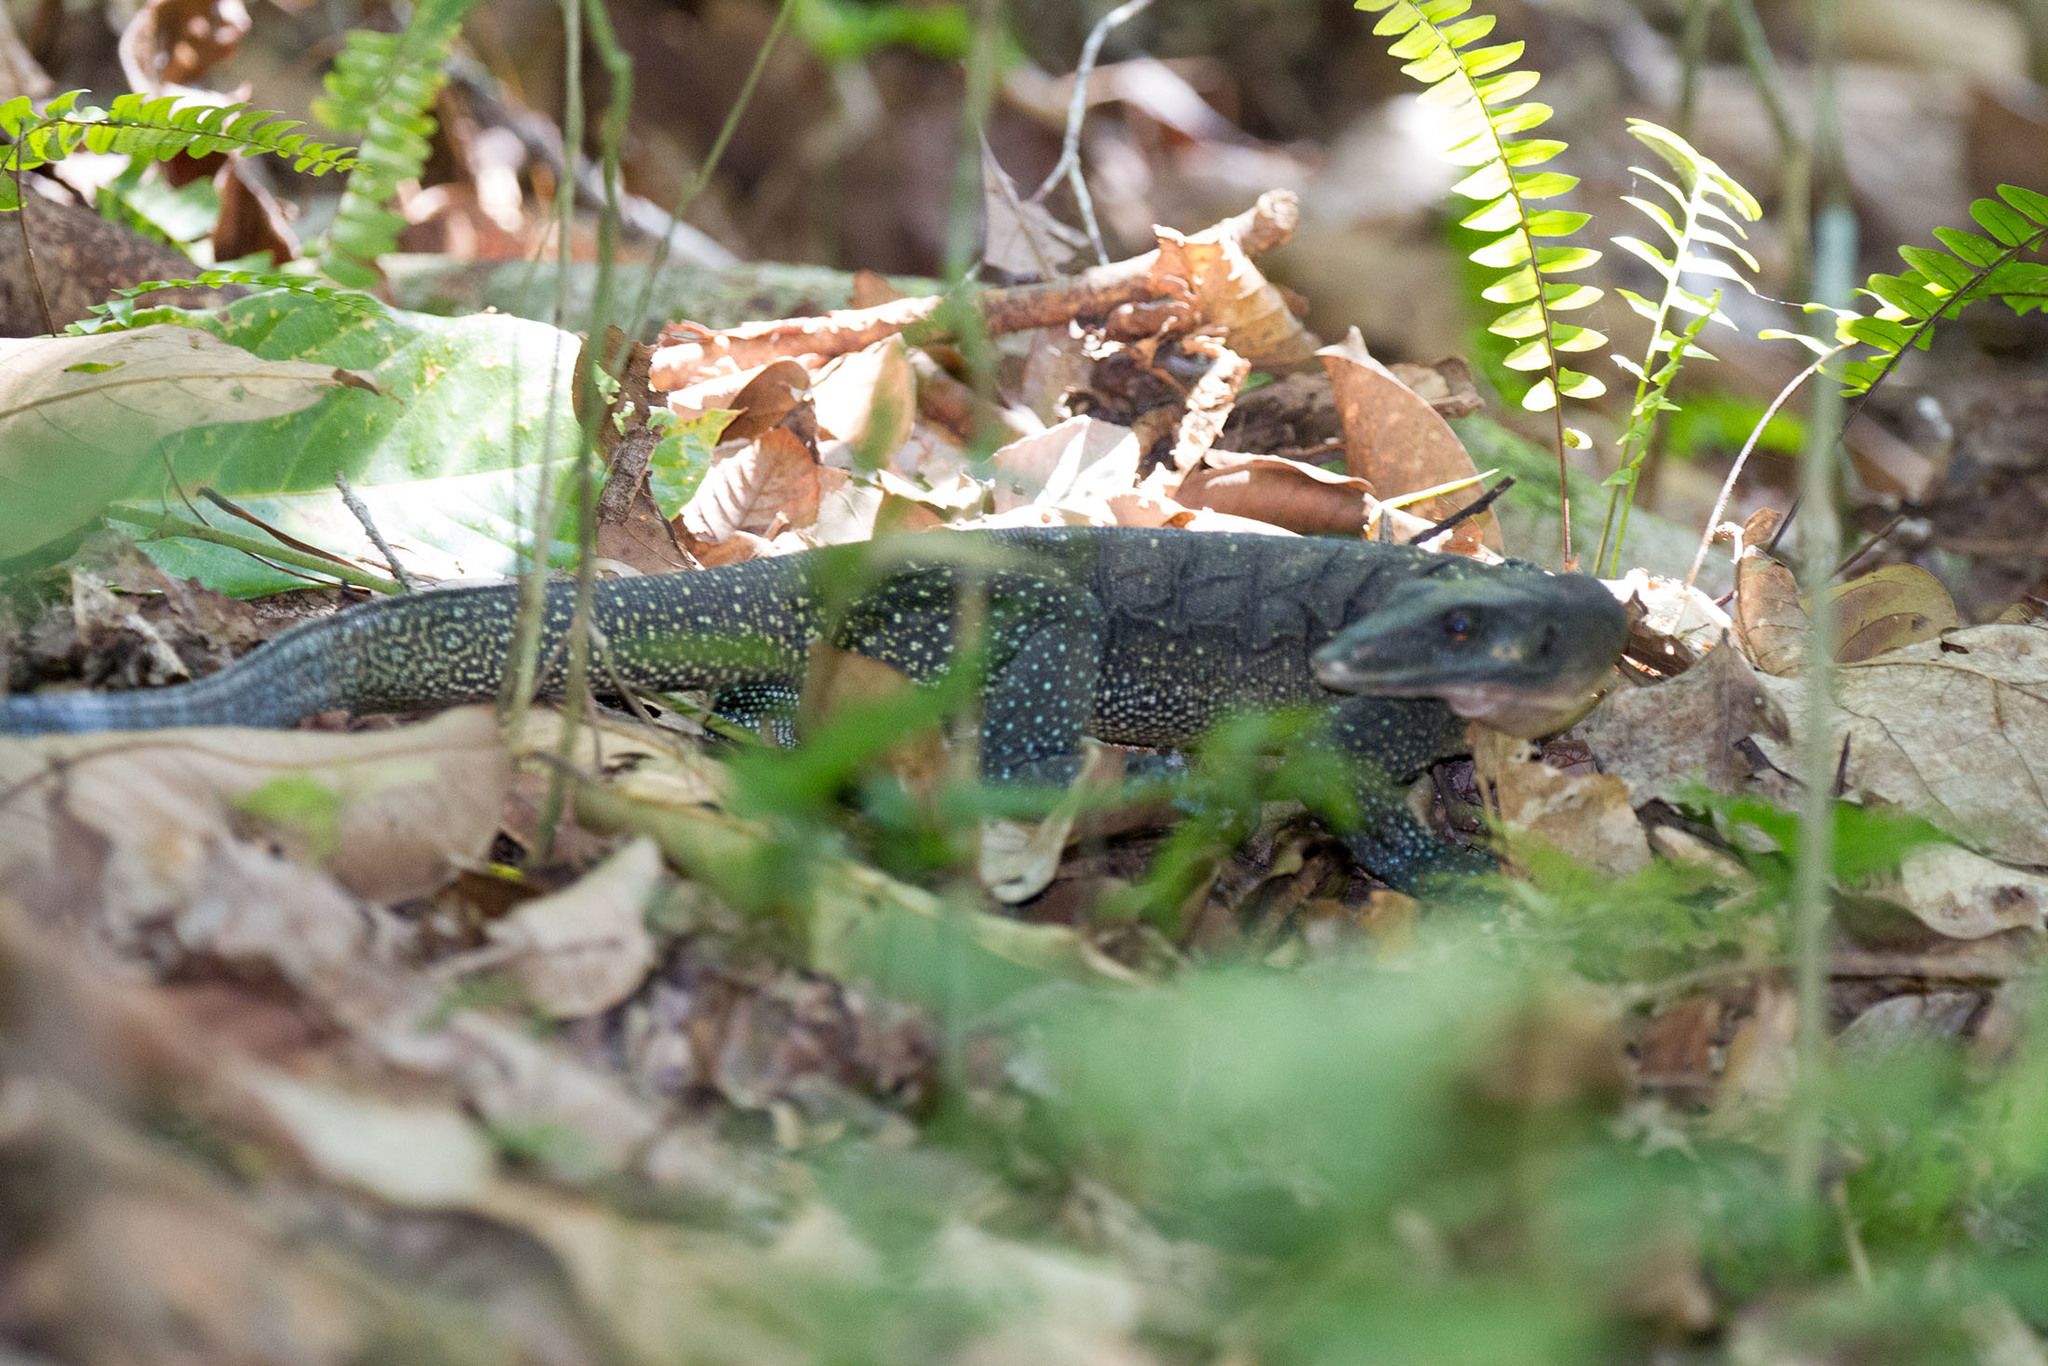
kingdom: Animalia
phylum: Chordata
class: Squamata
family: Varanidae
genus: Varanus
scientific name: Varanus jobiensis
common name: Peach-throated monitor
